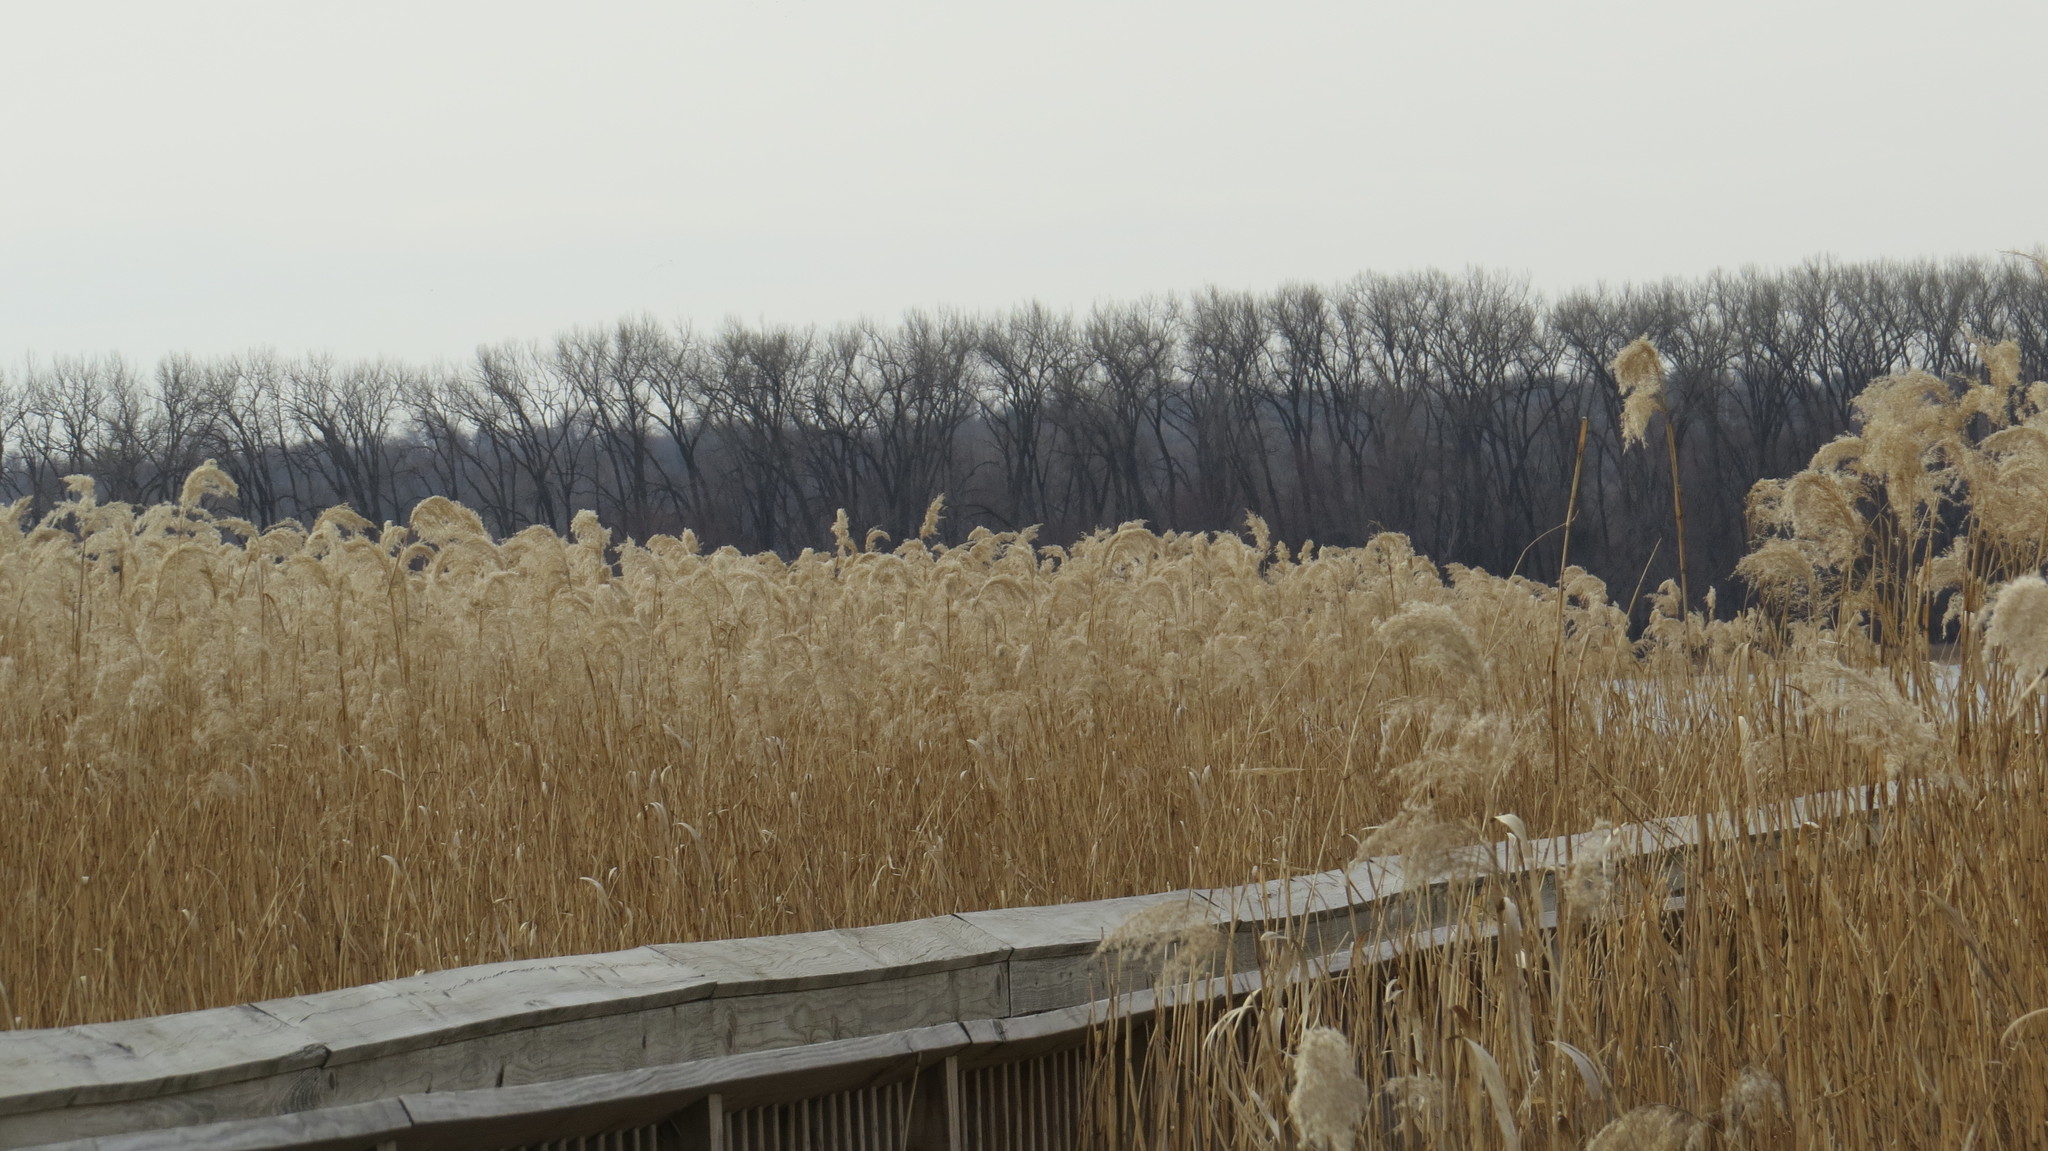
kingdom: Plantae
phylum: Tracheophyta
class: Liliopsida
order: Poales
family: Poaceae
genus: Phragmites
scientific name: Phragmites australis
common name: Common reed
